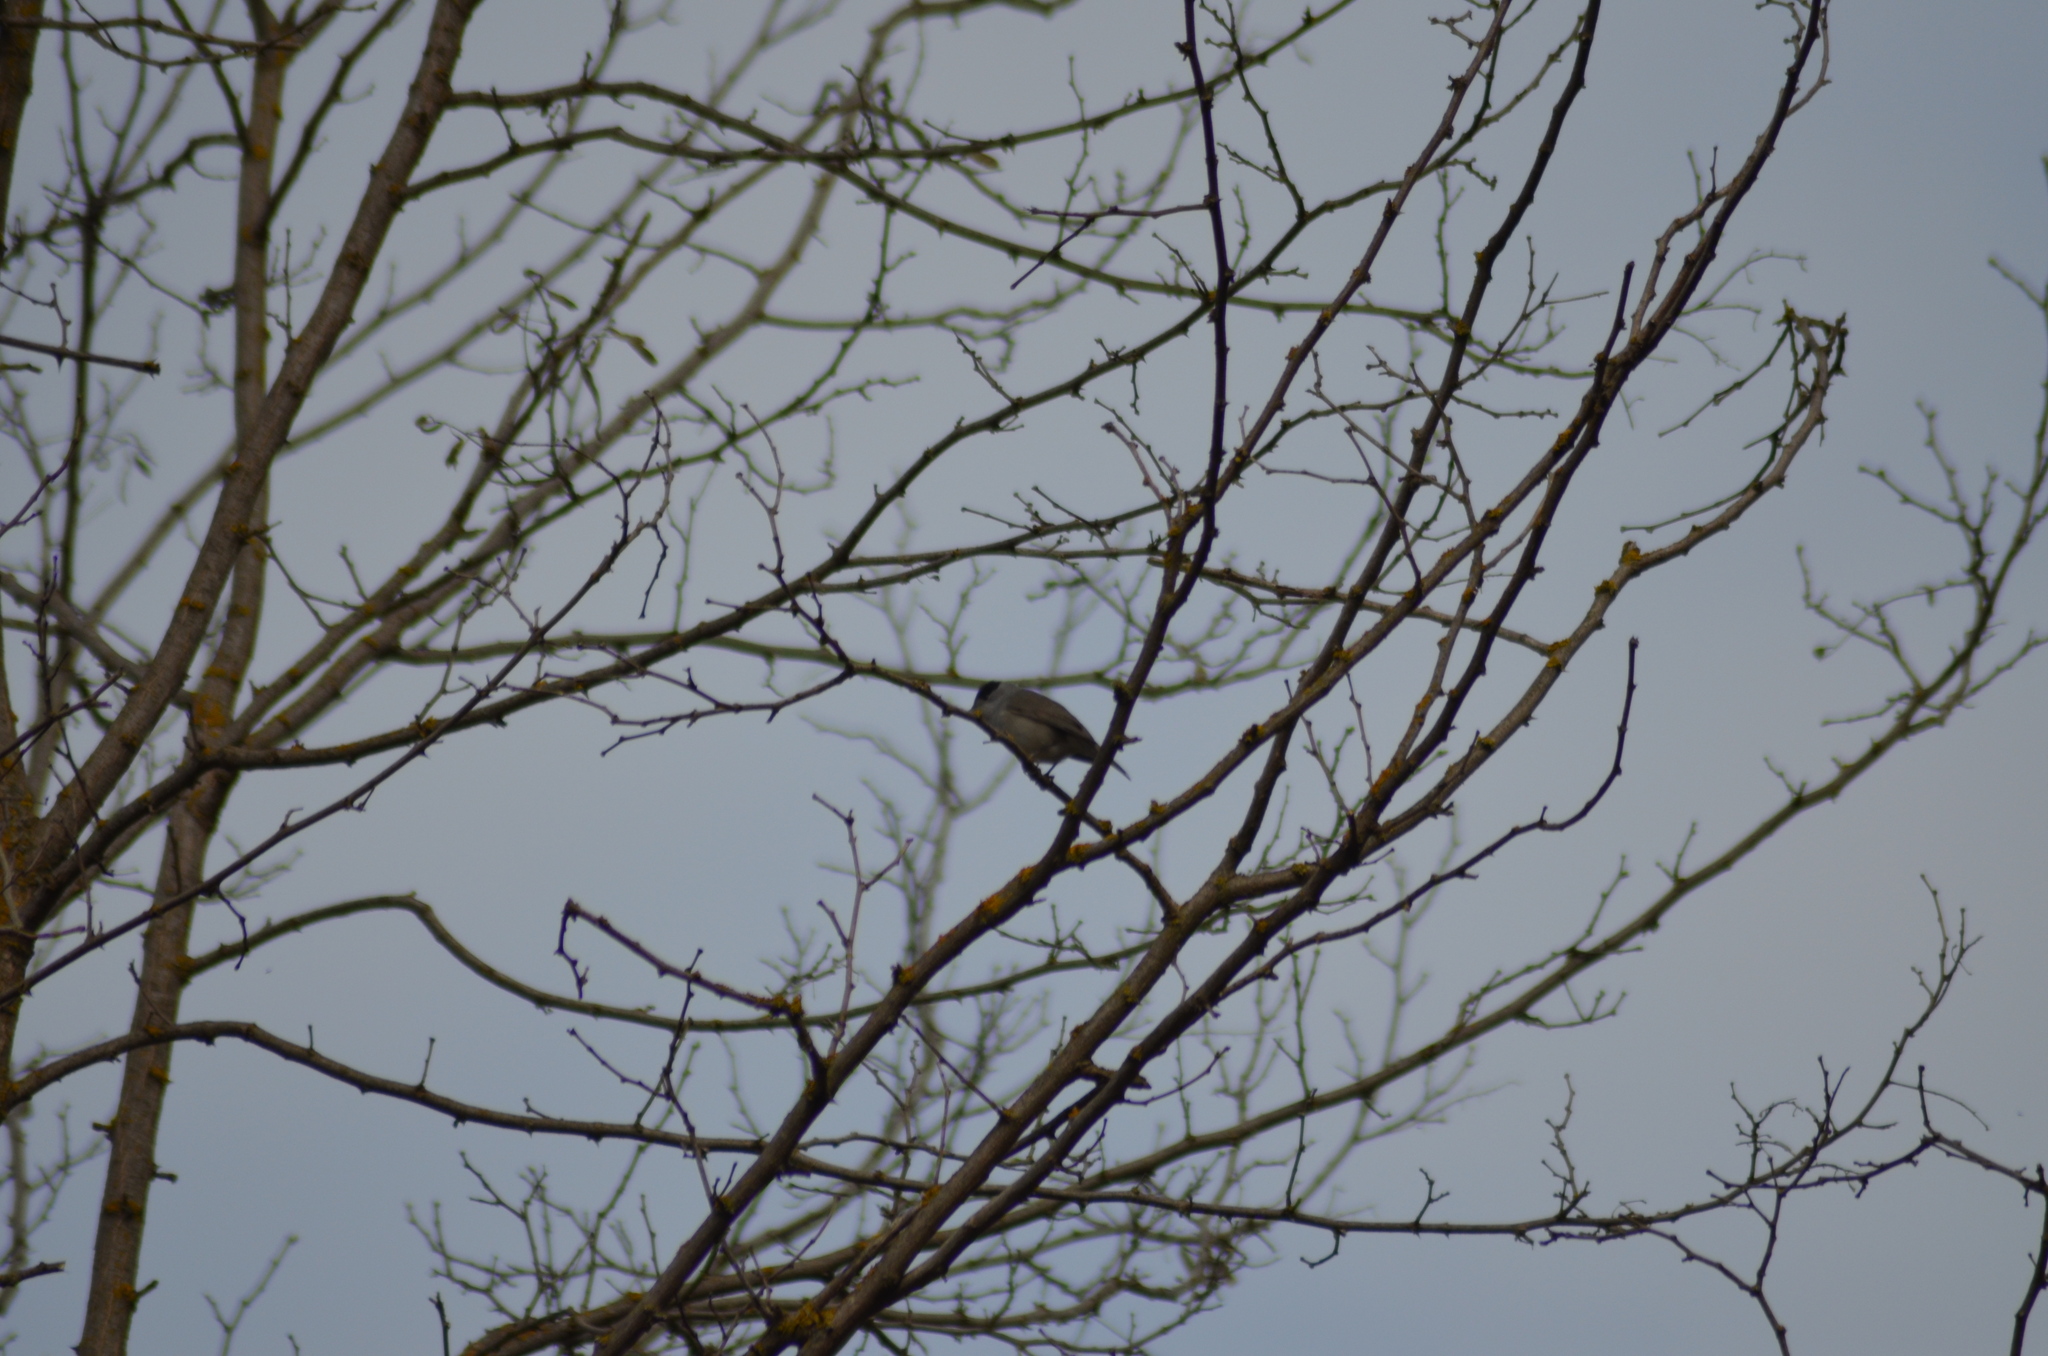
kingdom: Animalia
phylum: Chordata
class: Aves
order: Passeriformes
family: Sylviidae
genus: Sylvia
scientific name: Sylvia atricapilla
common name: Eurasian blackcap
